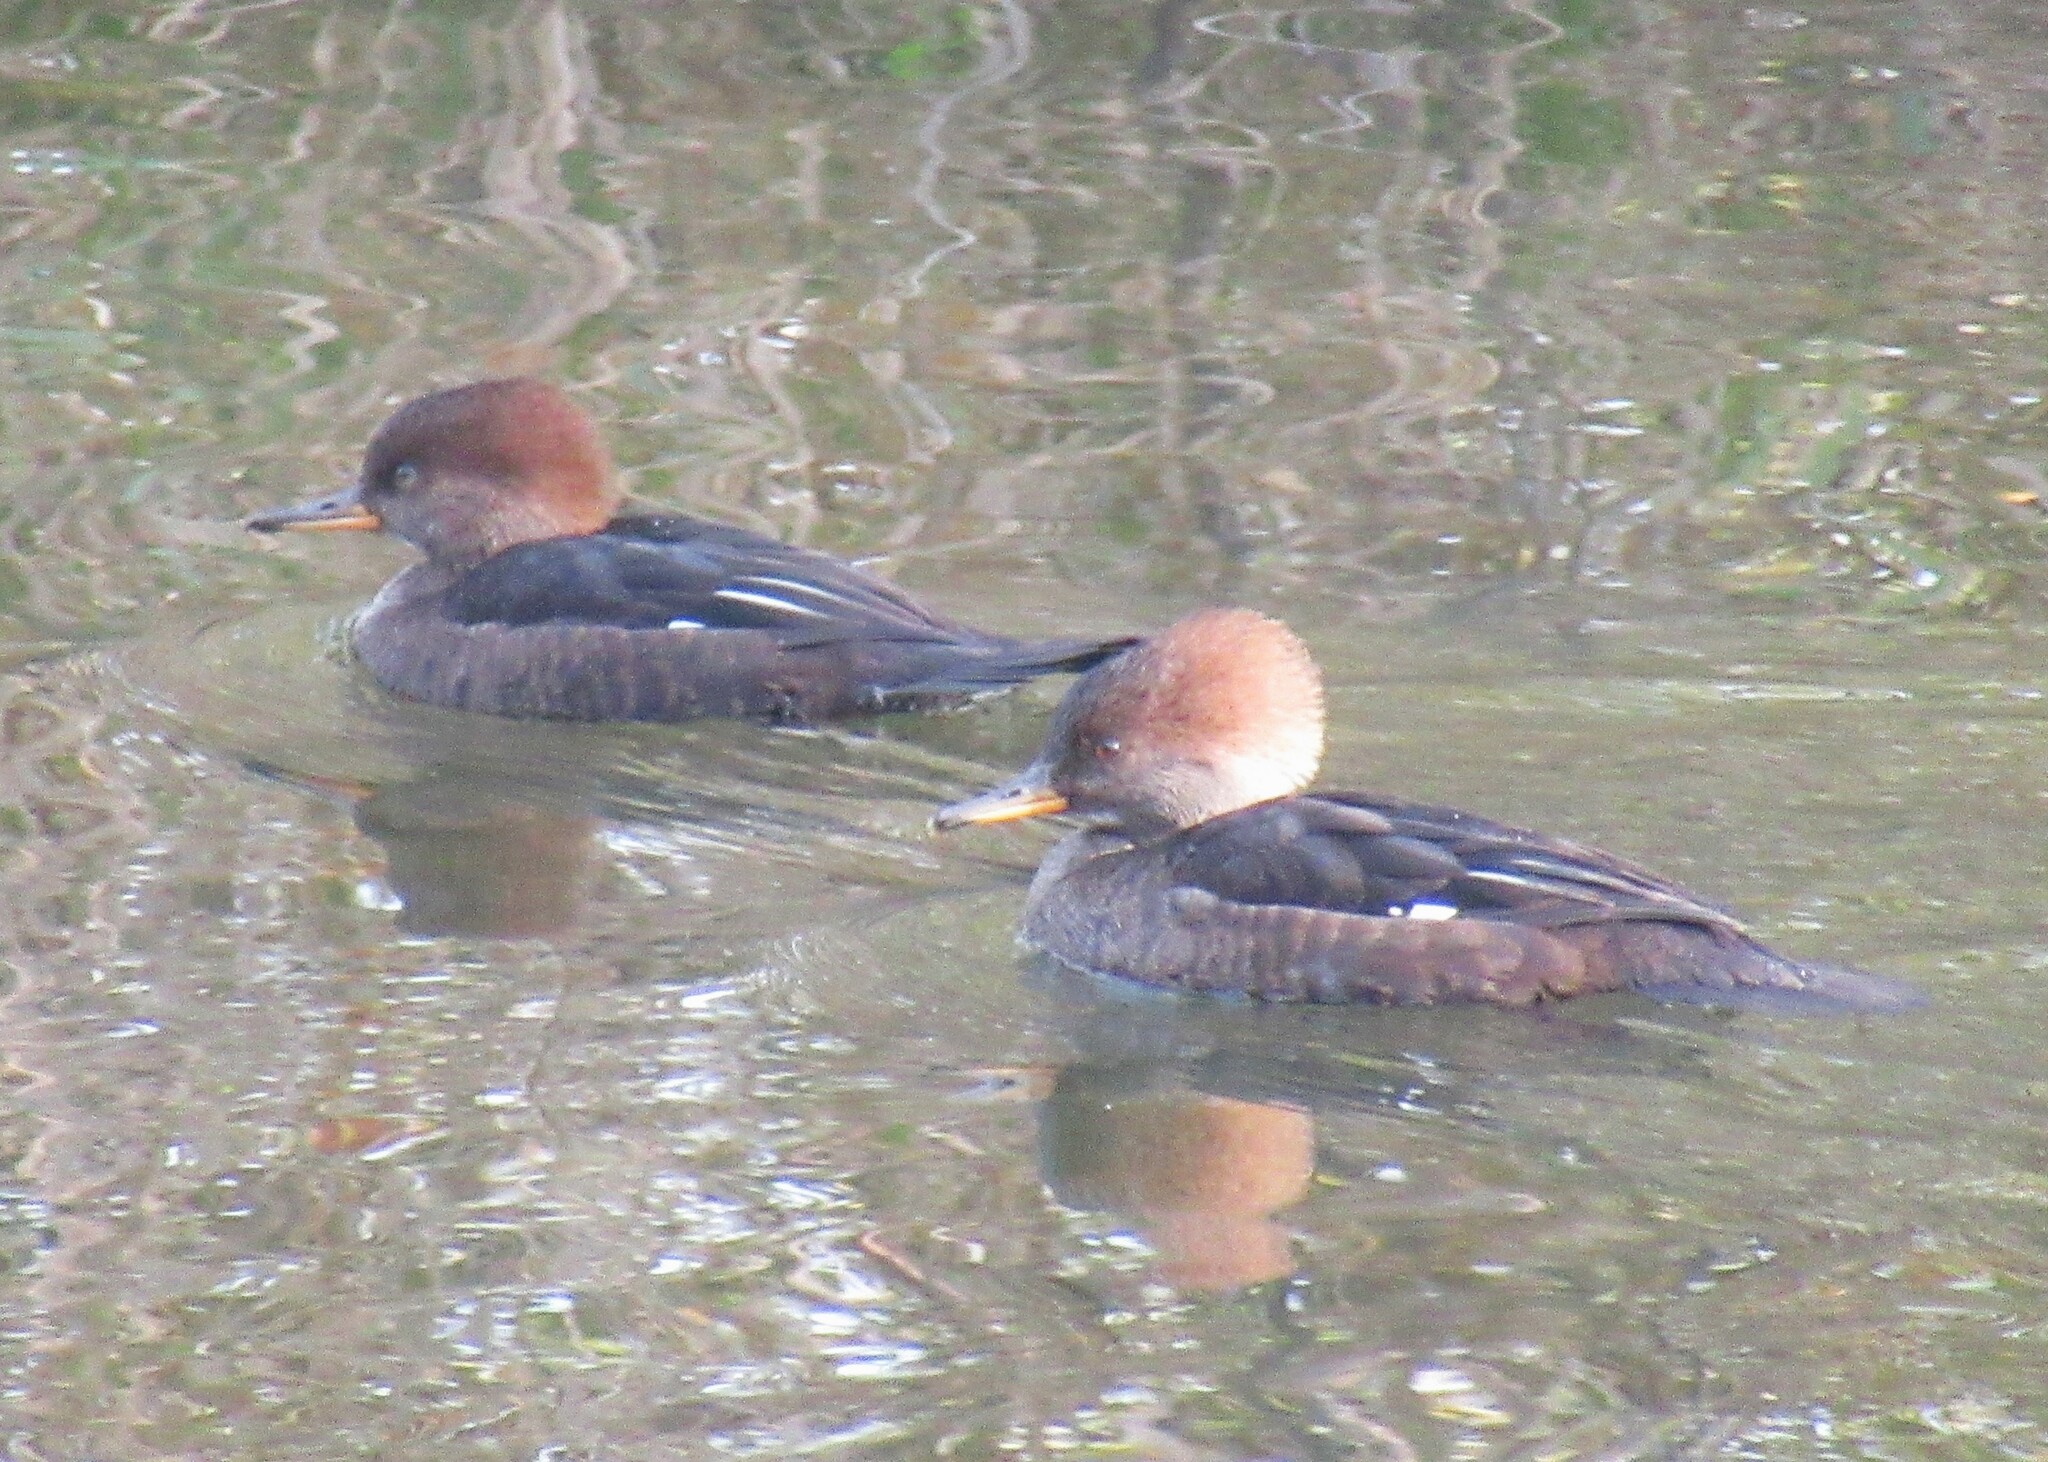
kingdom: Animalia
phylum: Chordata
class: Aves
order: Anseriformes
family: Anatidae
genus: Lophodytes
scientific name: Lophodytes cucullatus
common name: Hooded merganser
